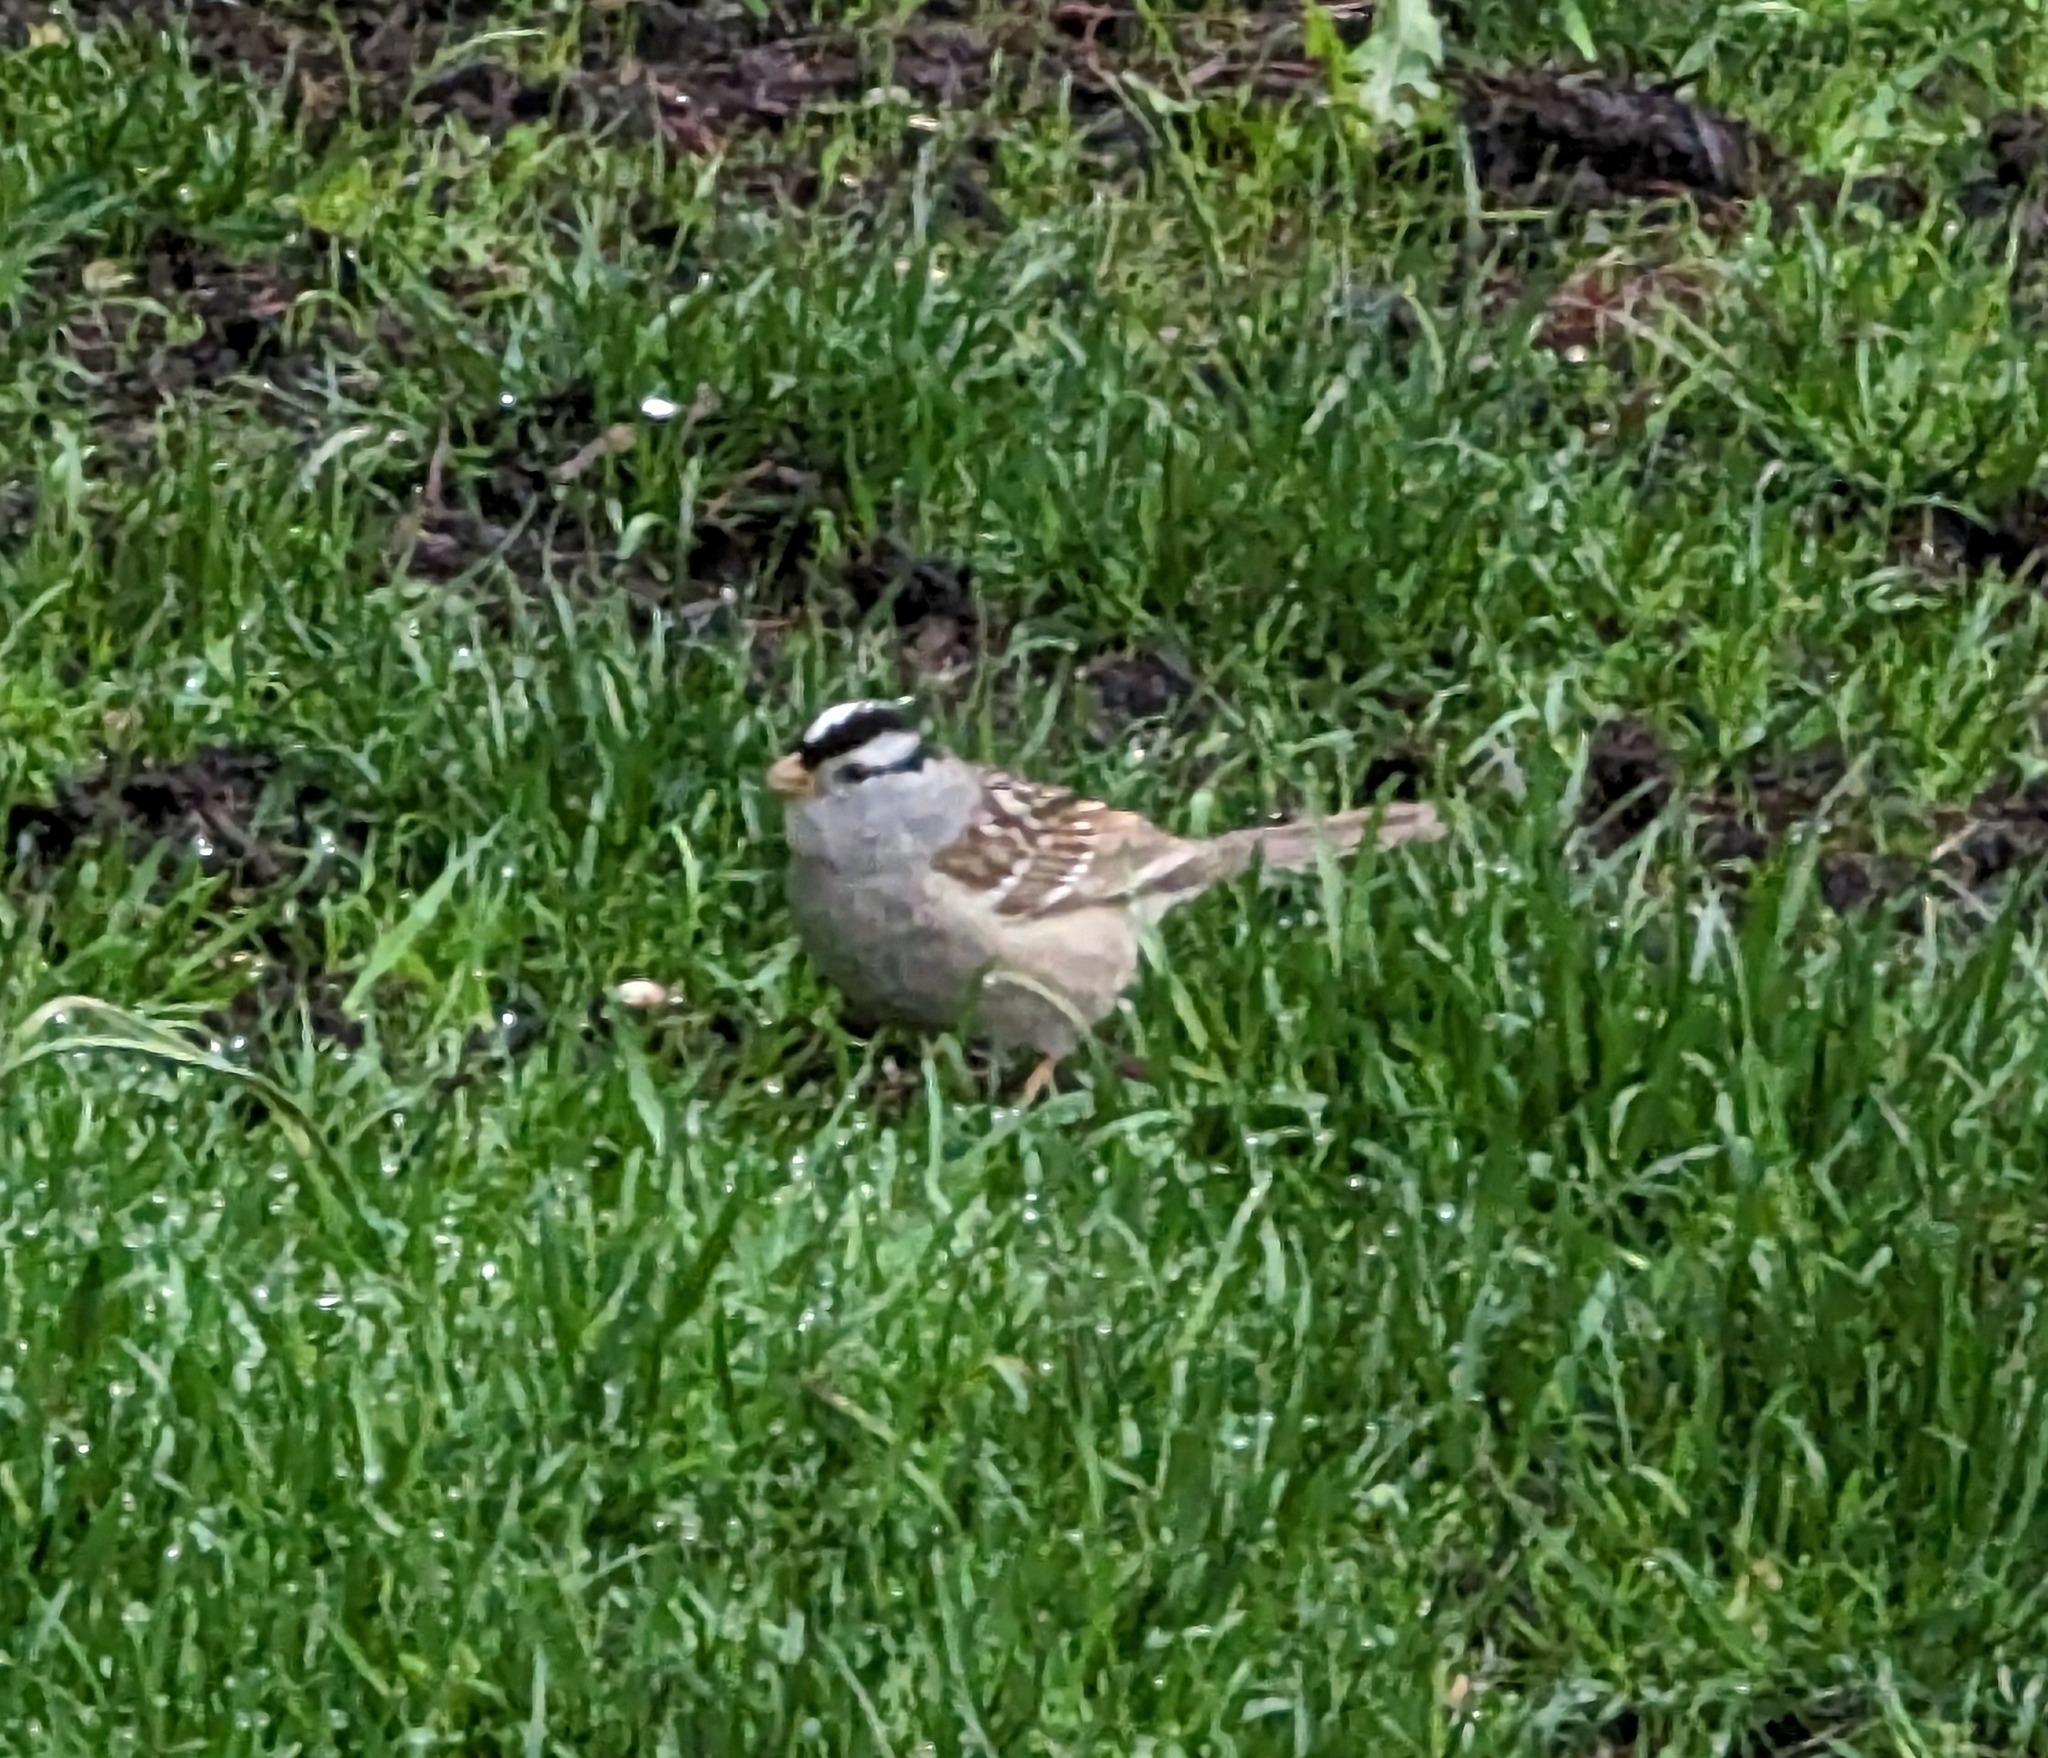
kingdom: Animalia
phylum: Chordata
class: Aves
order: Passeriformes
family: Passerellidae
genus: Zonotrichia
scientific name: Zonotrichia leucophrys
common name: White-crowned sparrow
